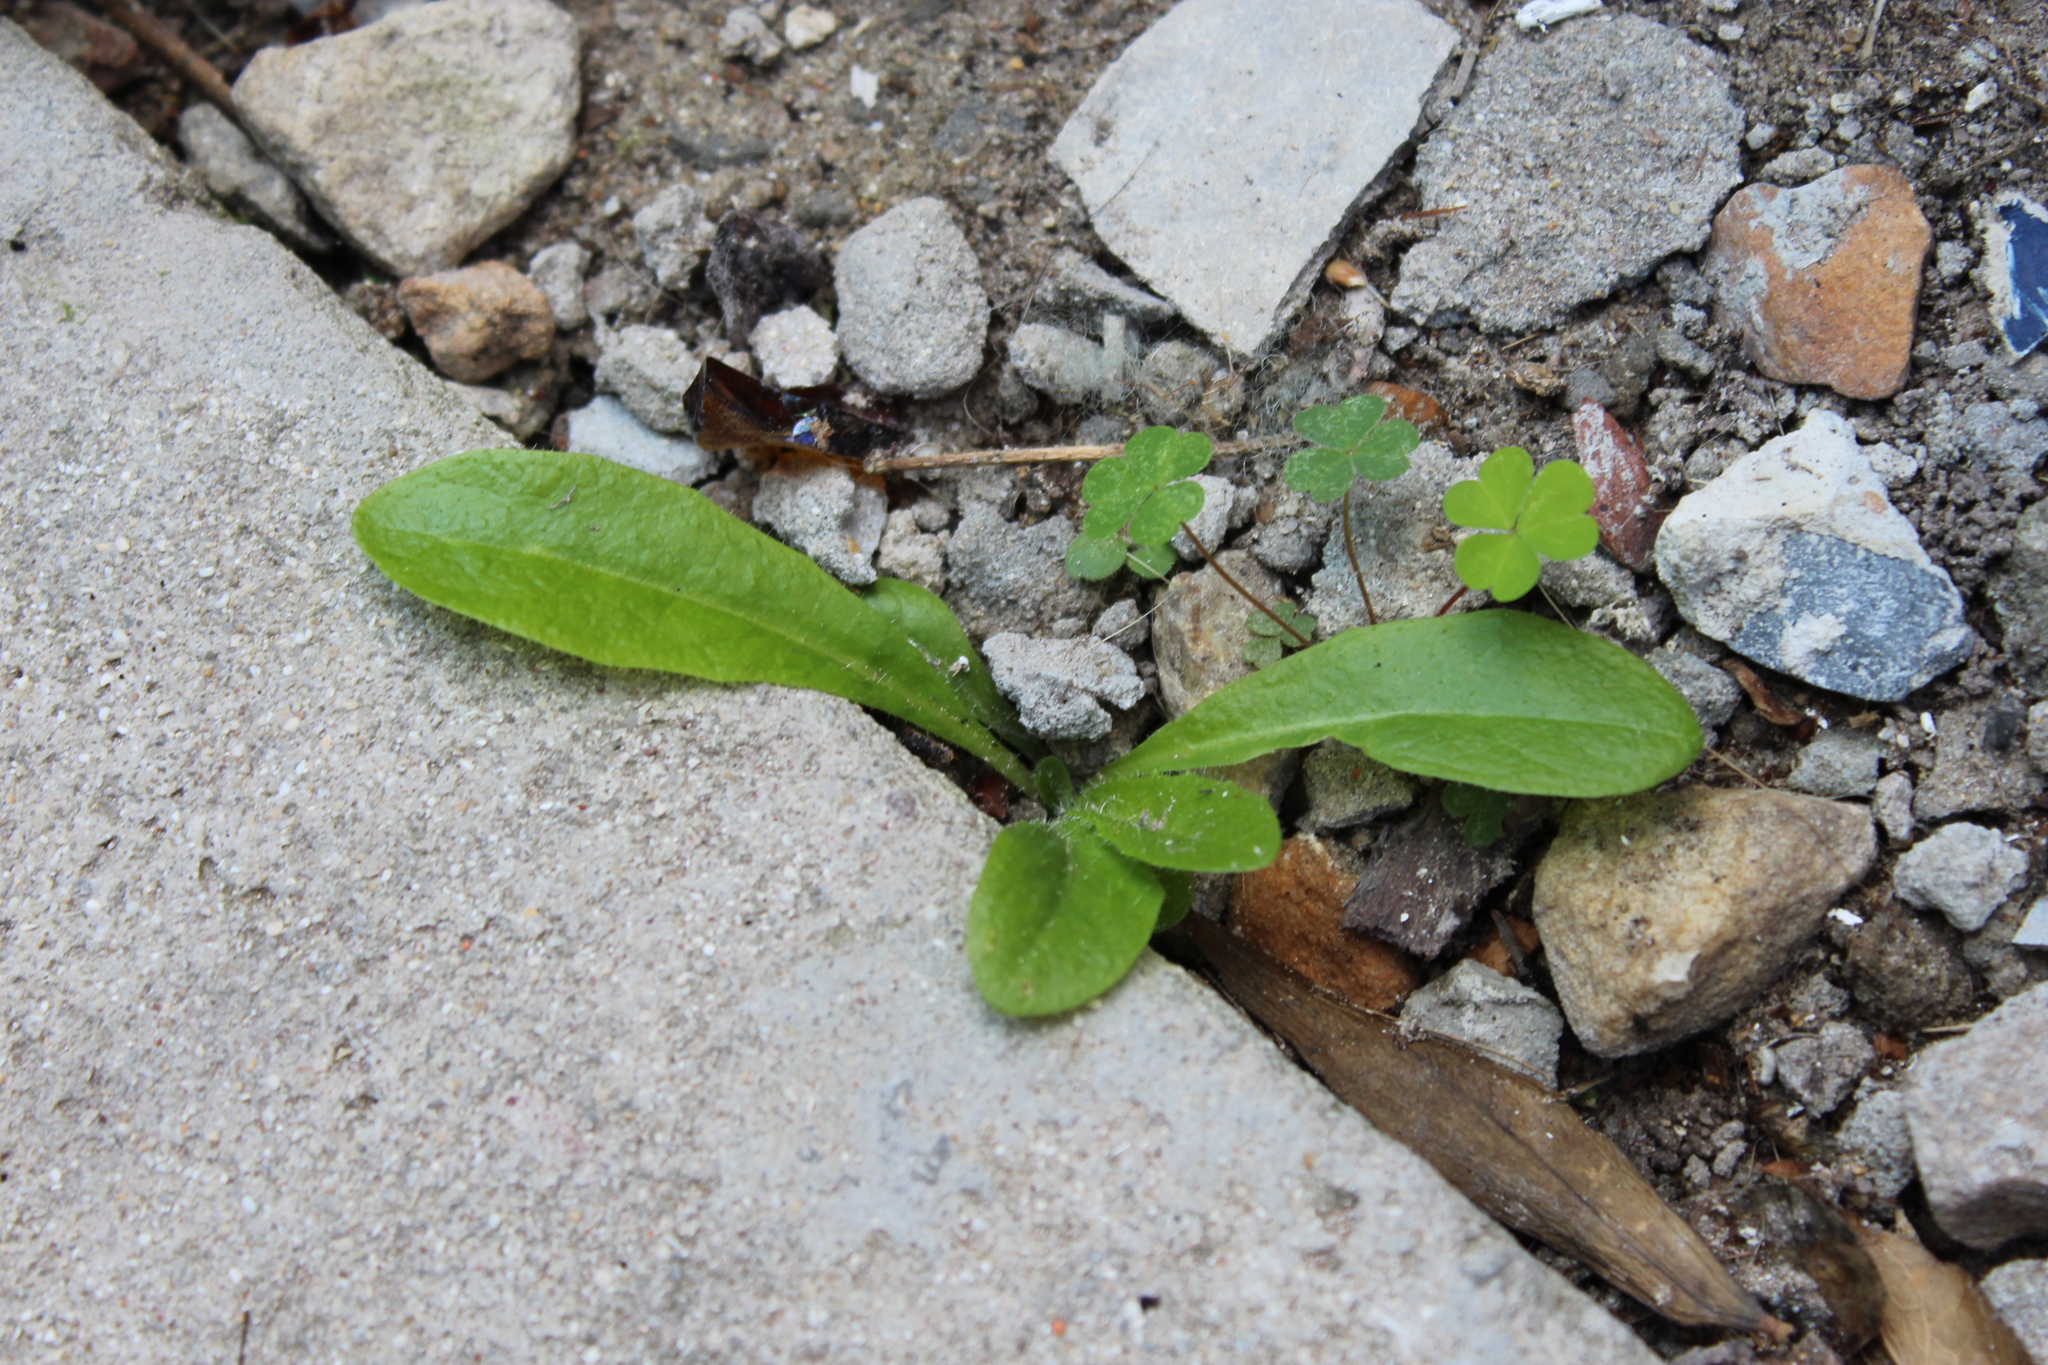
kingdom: Plantae
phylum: Tracheophyta
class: Magnoliopsida
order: Oxalidales
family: Oxalidaceae
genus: Oxalis
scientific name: Oxalis corniculata
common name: Procumbent yellow-sorrel
